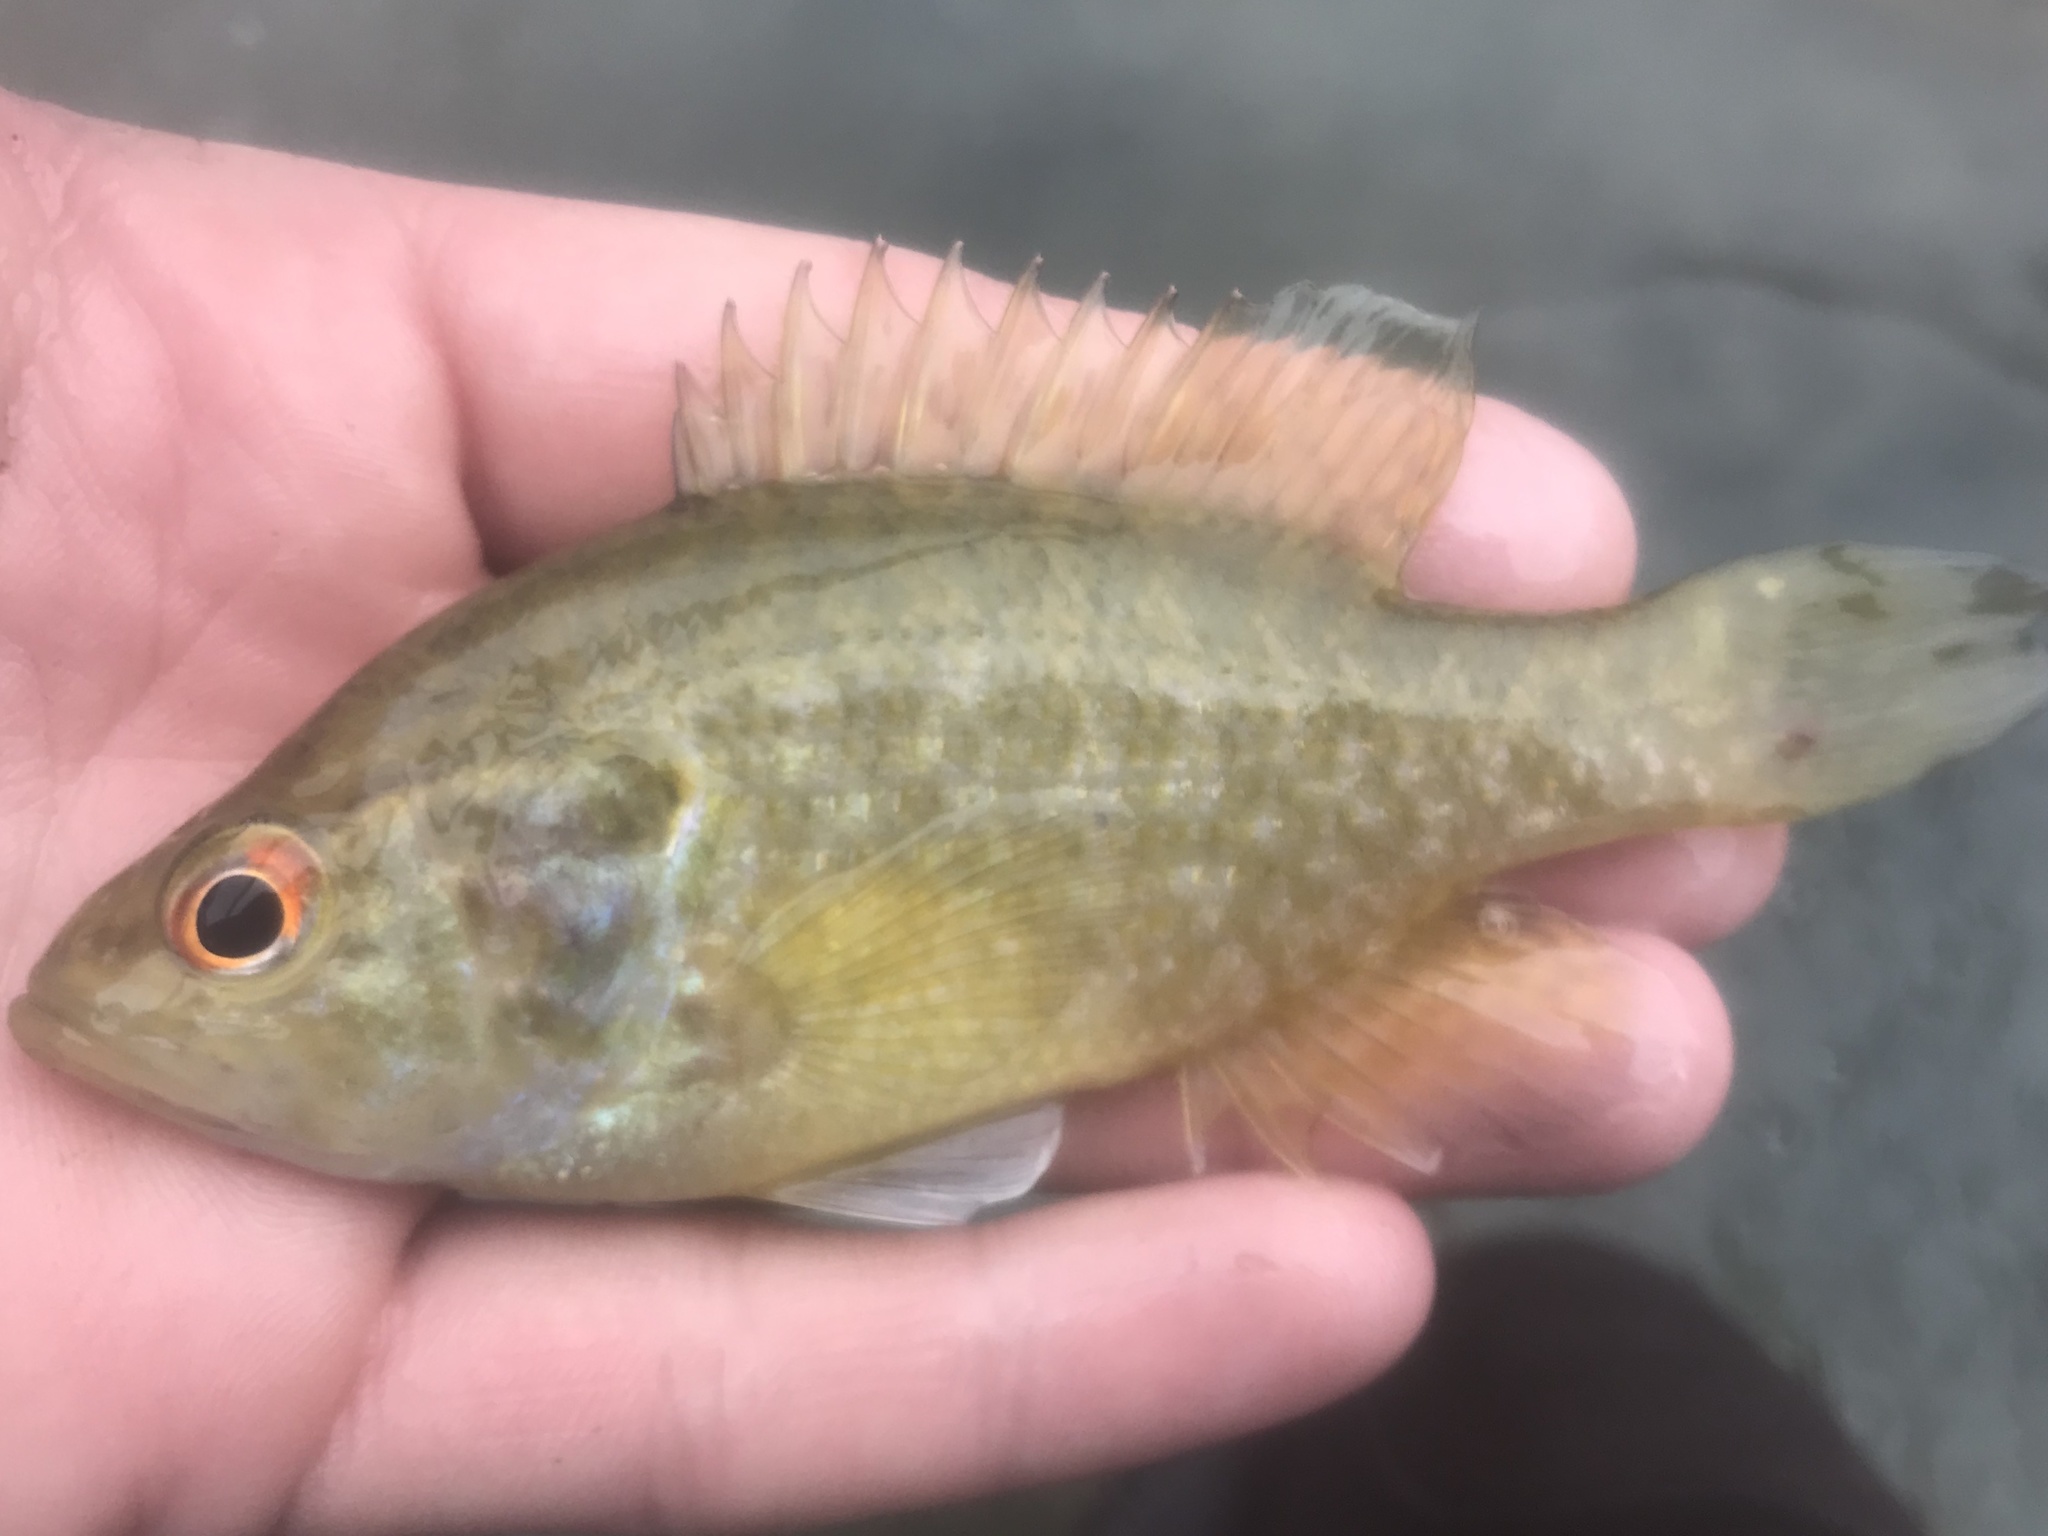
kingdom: Animalia
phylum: Chordata
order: Perciformes
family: Centrarchidae
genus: Lepomis
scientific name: Lepomis gulosus
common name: Warmouth
